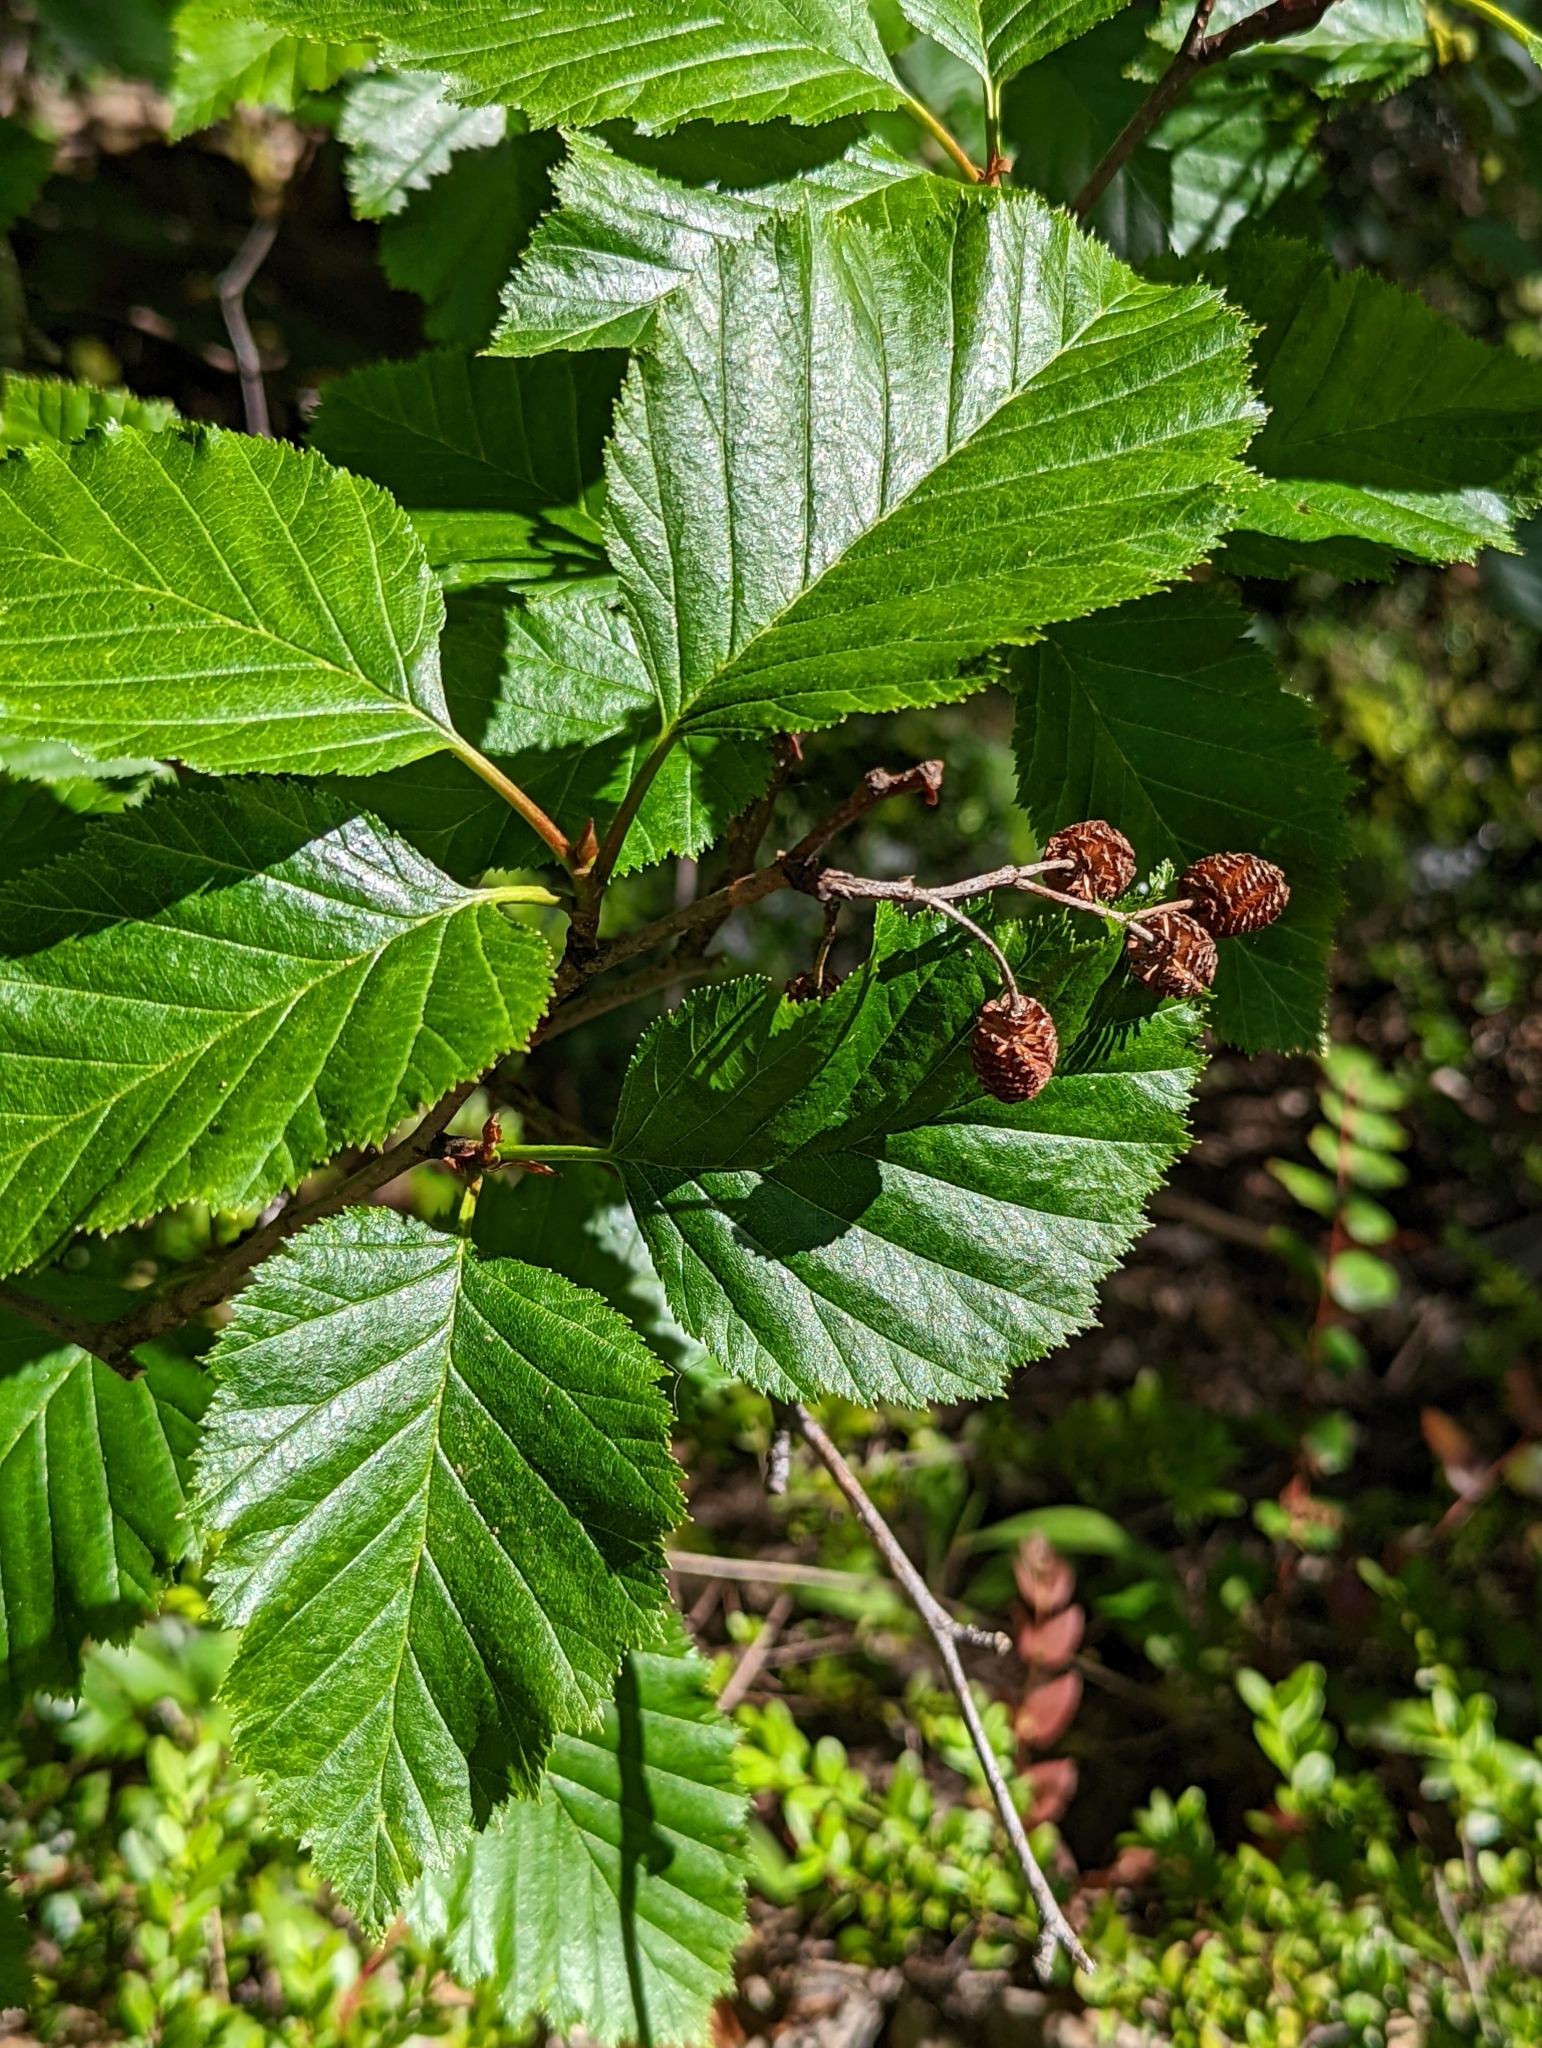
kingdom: Plantae
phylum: Tracheophyta
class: Magnoliopsida
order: Fagales
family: Betulaceae
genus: Alnus
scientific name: Alnus alnobetula
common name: Green alder
